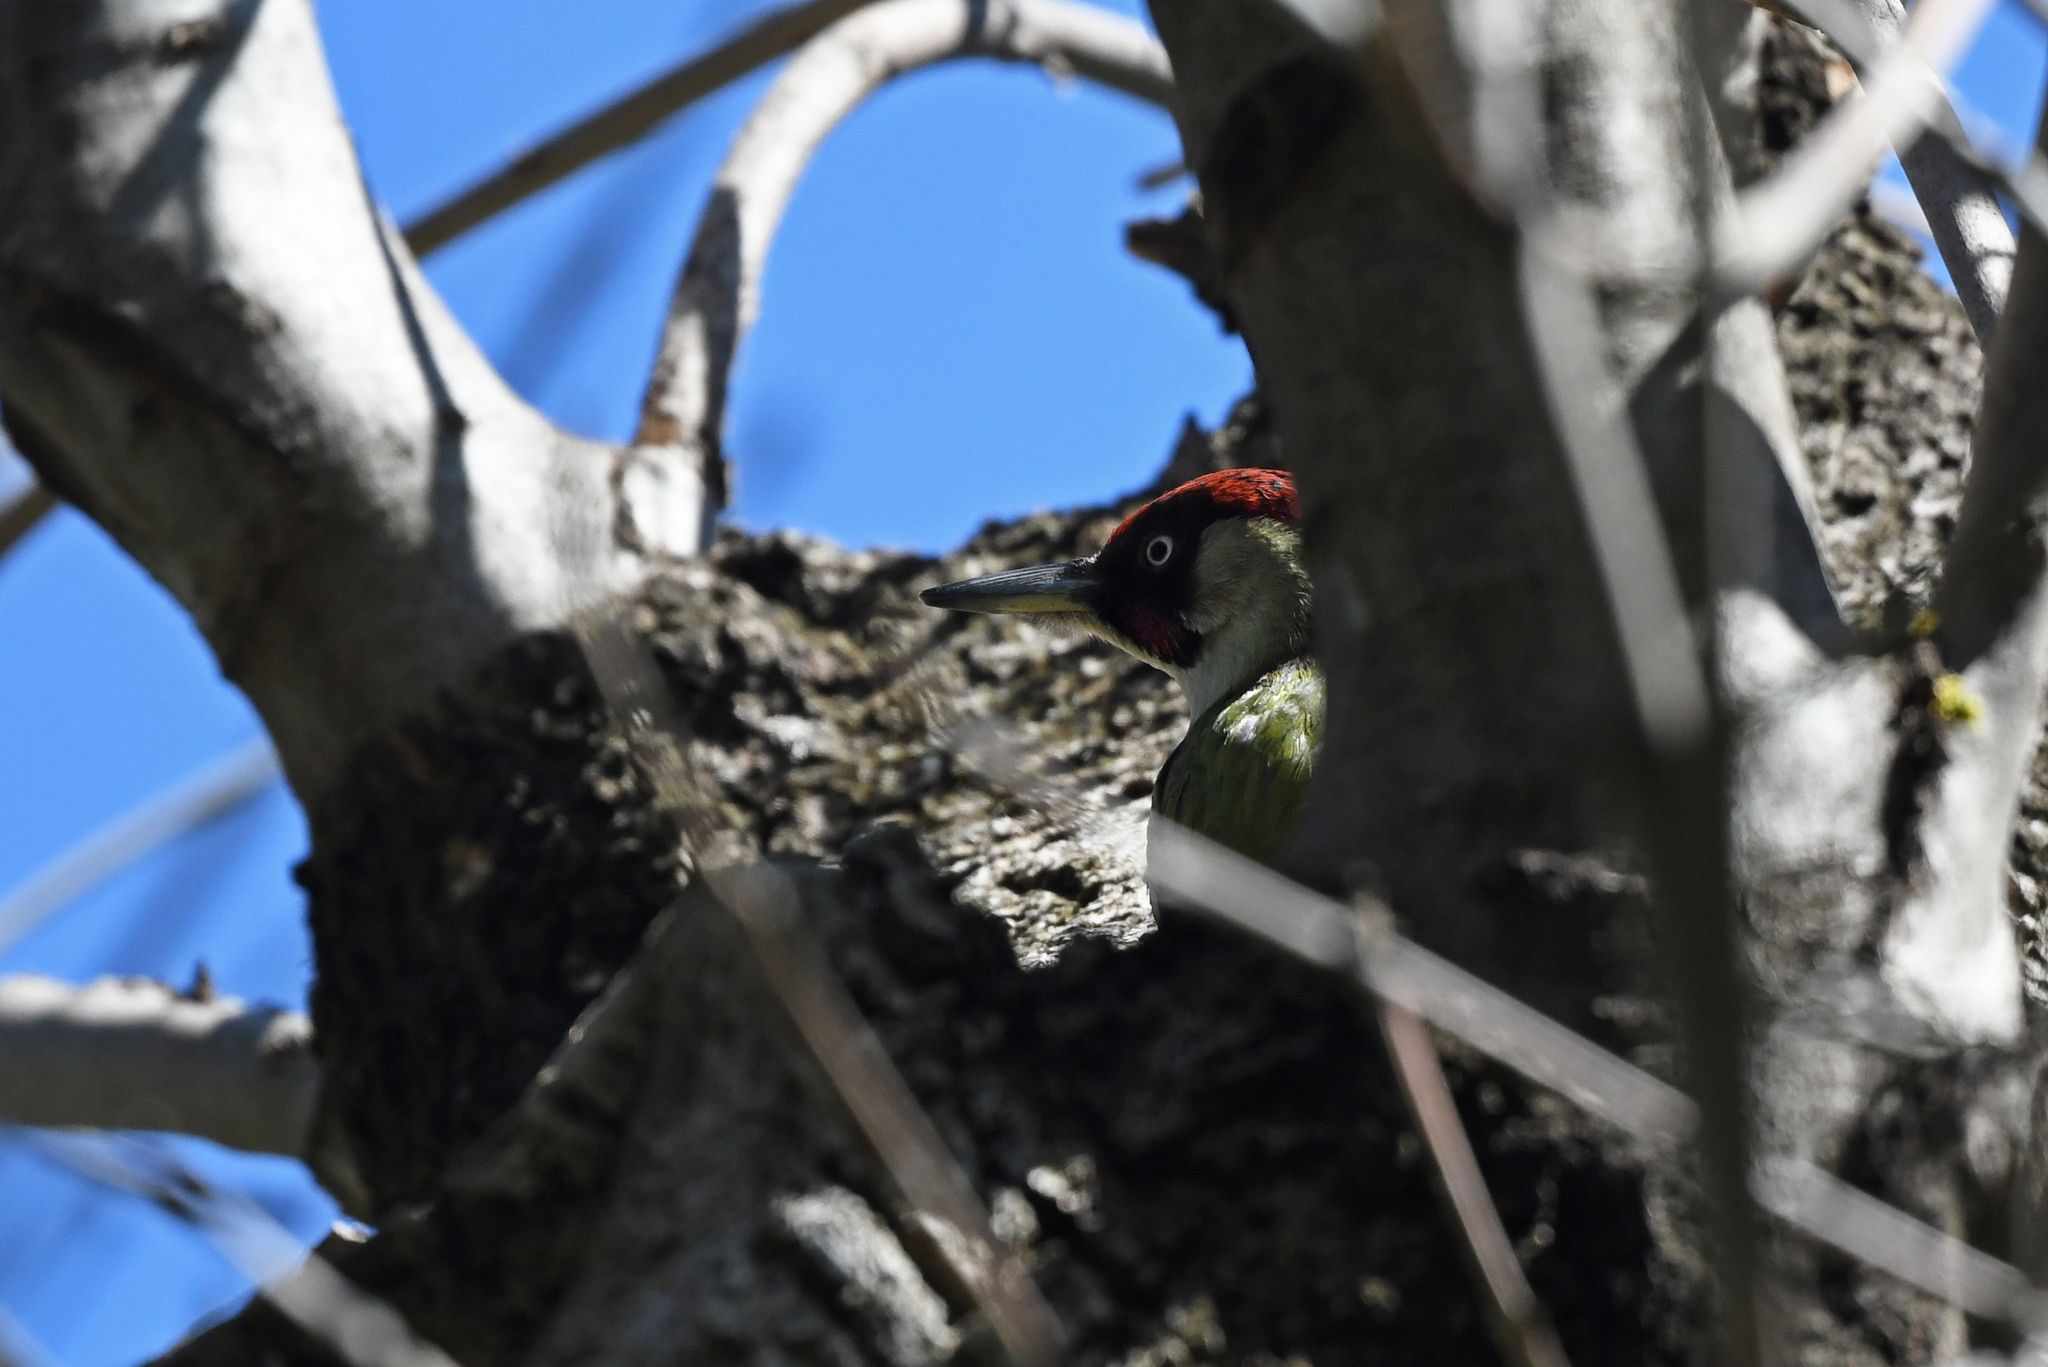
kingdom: Animalia
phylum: Chordata
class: Aves
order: Piciformes
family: Picidae
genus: Picus
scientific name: Picus viridis
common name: European green woodpecker
